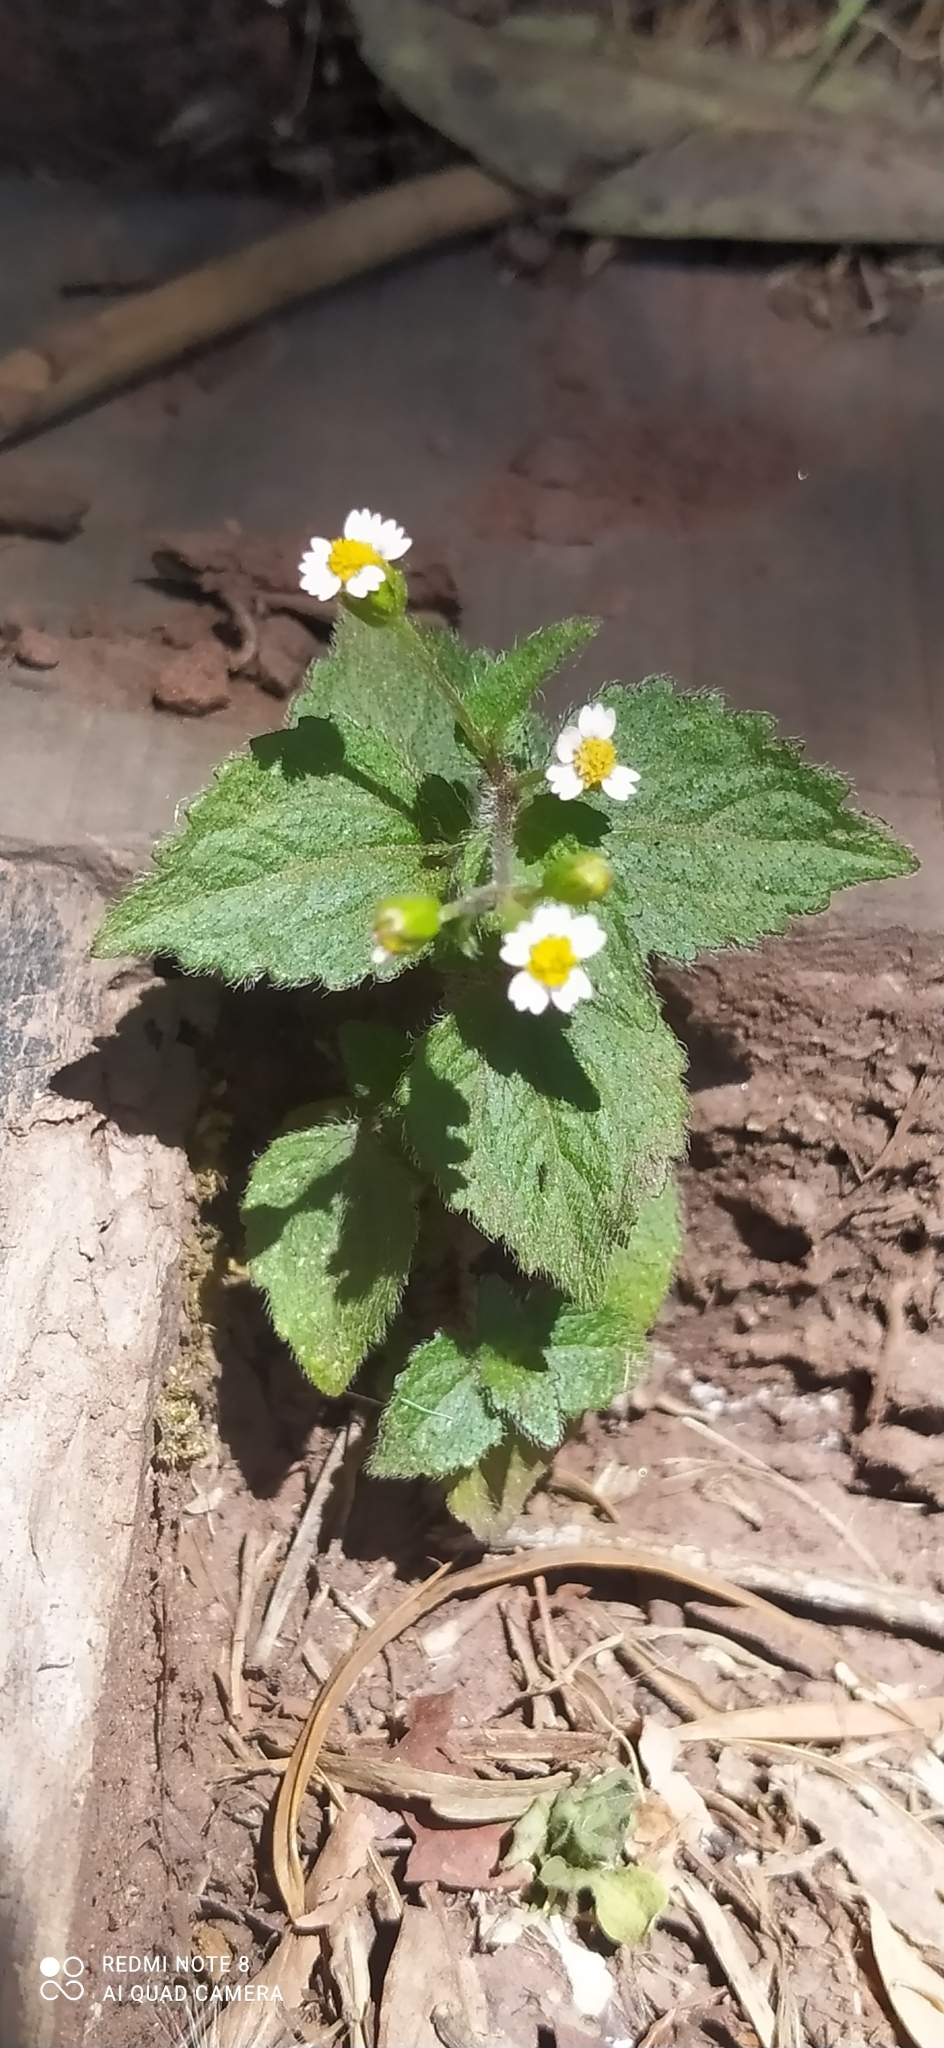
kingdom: Plantae
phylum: Tracheophyta
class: Magnoliopsida
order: Asterales
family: Asteraceae
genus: Galinsoga
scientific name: Galinsoga quadriradiata
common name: Shaggy soldier
